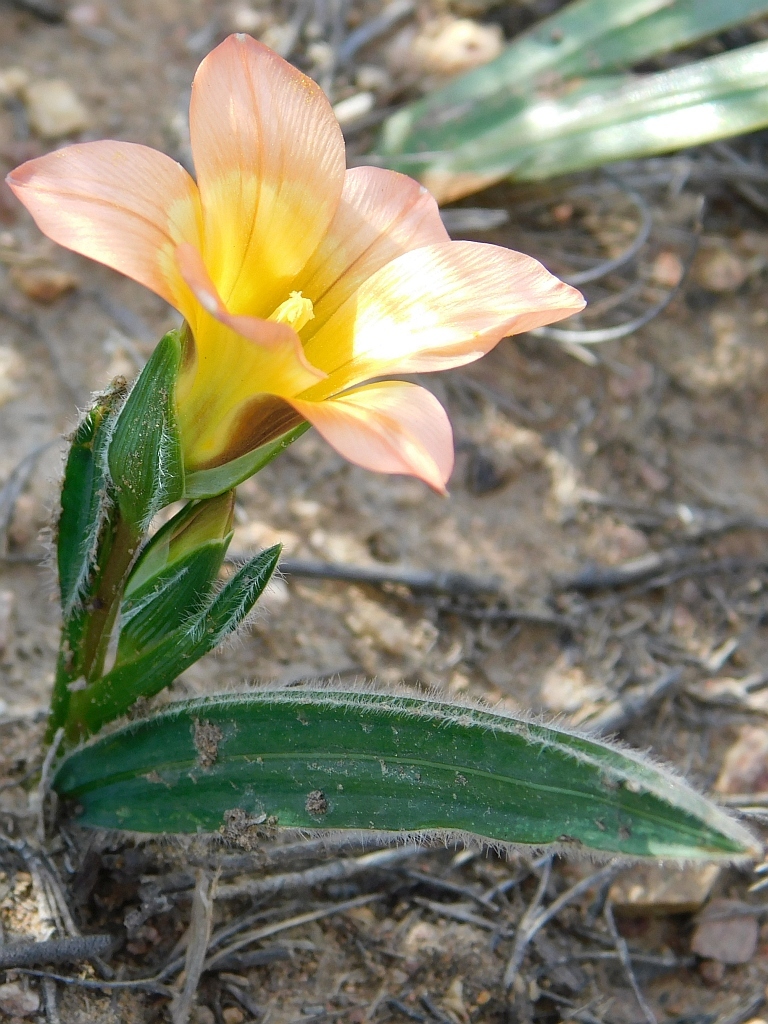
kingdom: Plantae
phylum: Tracheophyta
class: Liliopsida
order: Asparagales
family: Iridaceae
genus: Romulea
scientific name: Romulea pilosa
